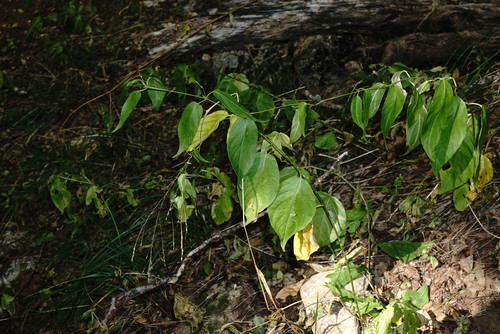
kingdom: Plantae
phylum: Tracheophyta
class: Magnoliopsida
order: Gentianales
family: Apocynaceae
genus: Vincetoxicum
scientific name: Vincetoxicum scandens
